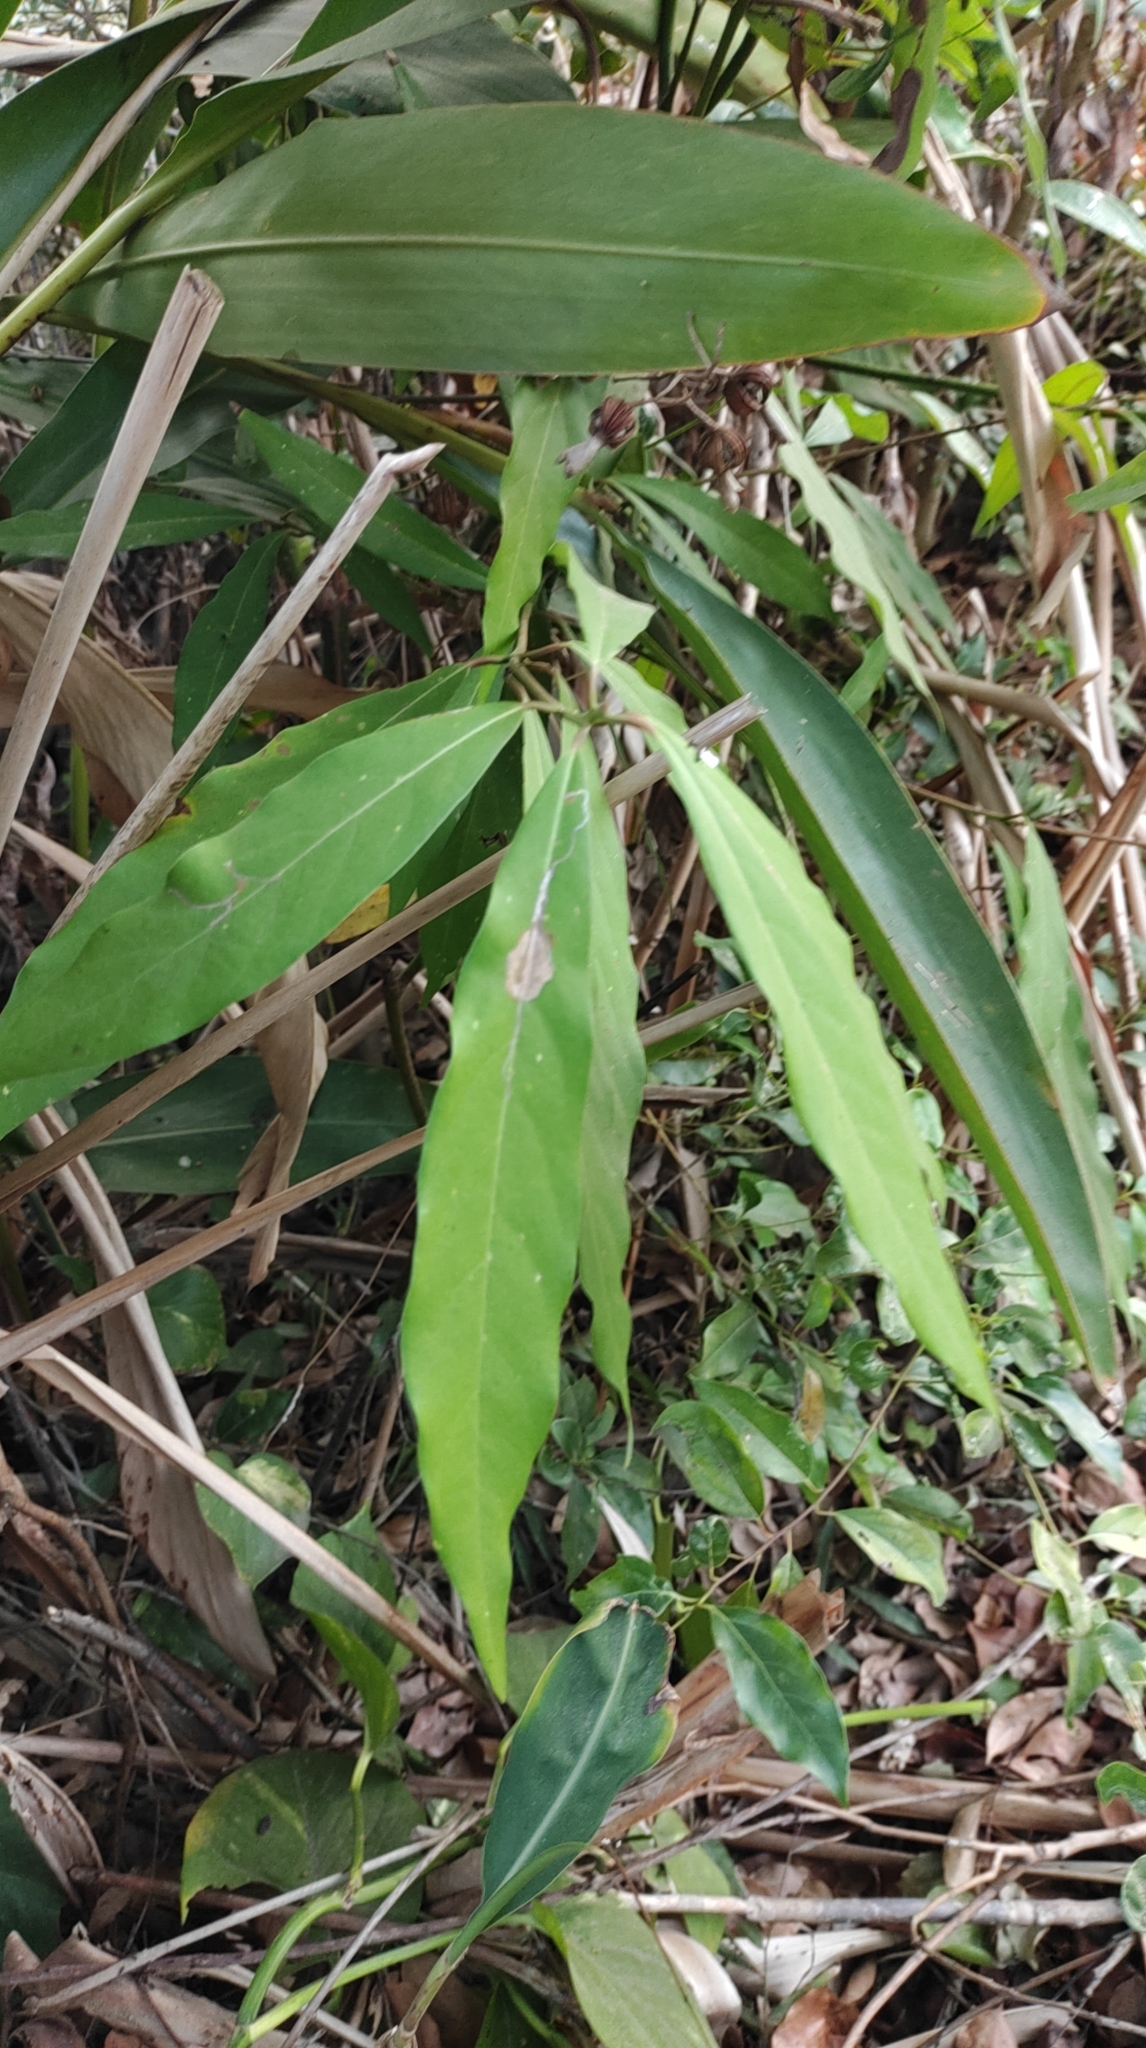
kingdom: Plantae
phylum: Tracheophyta
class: Magnoliopsida
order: Laurales
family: Lauraceae
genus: Machilus
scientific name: Machilus zuihoensis
